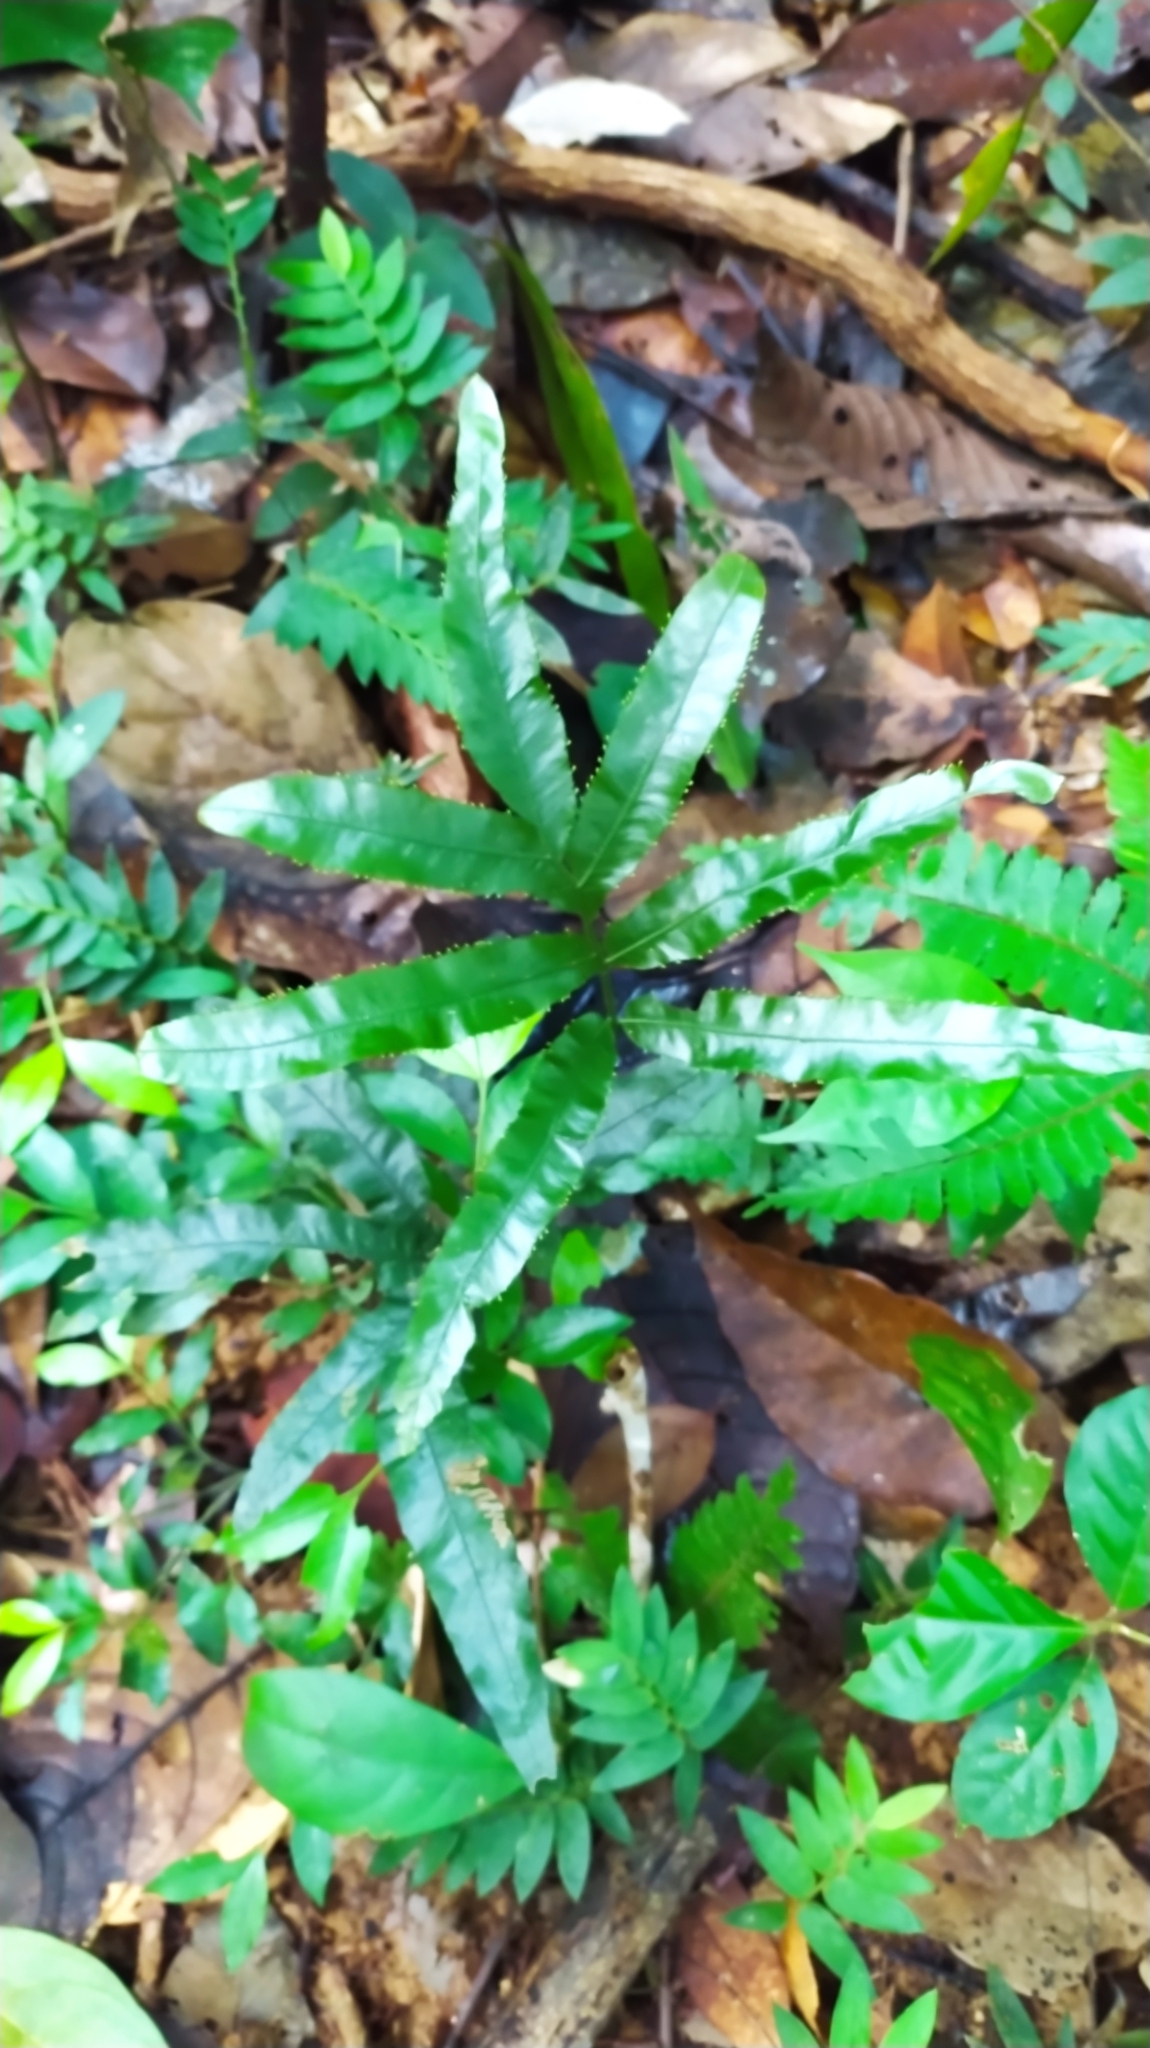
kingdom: Plantae
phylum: Tracheophyta
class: Polypodiopsida
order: Hymenophyllales
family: Hymenophyllaceae
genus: Trichomanes
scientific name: Trichomanes pinnatum
